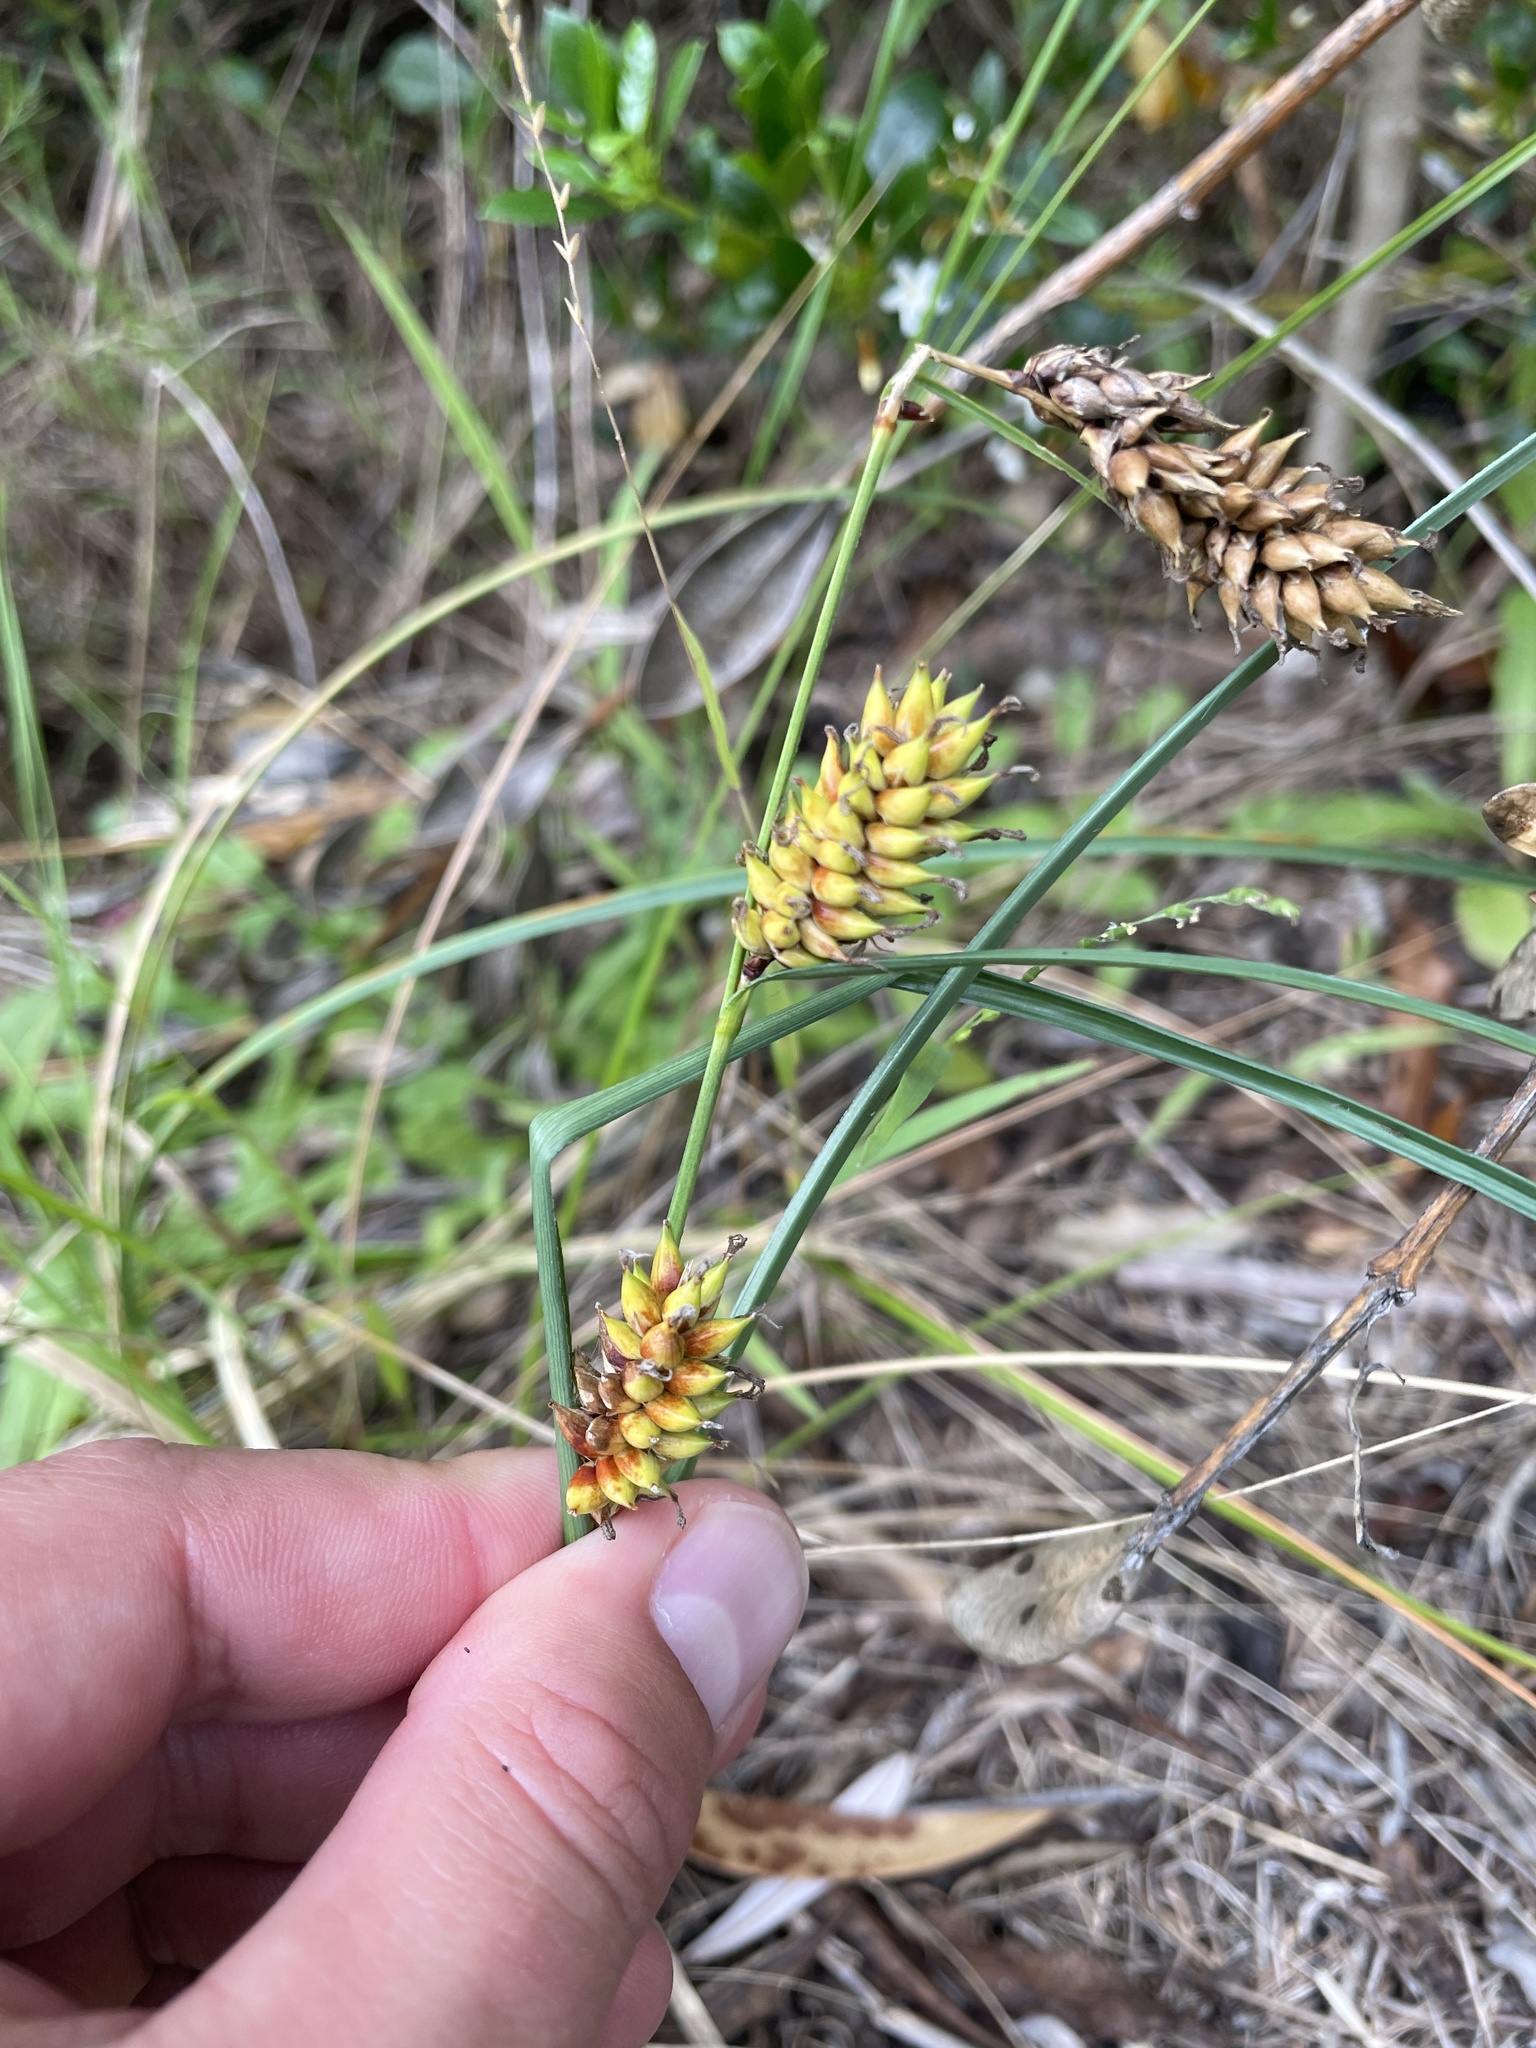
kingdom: Plantae
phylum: Tracheophyta
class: Liliopsida
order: Poales
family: Cyperaceae
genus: Carex
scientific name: Carex pumila
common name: Dwarf sedge
